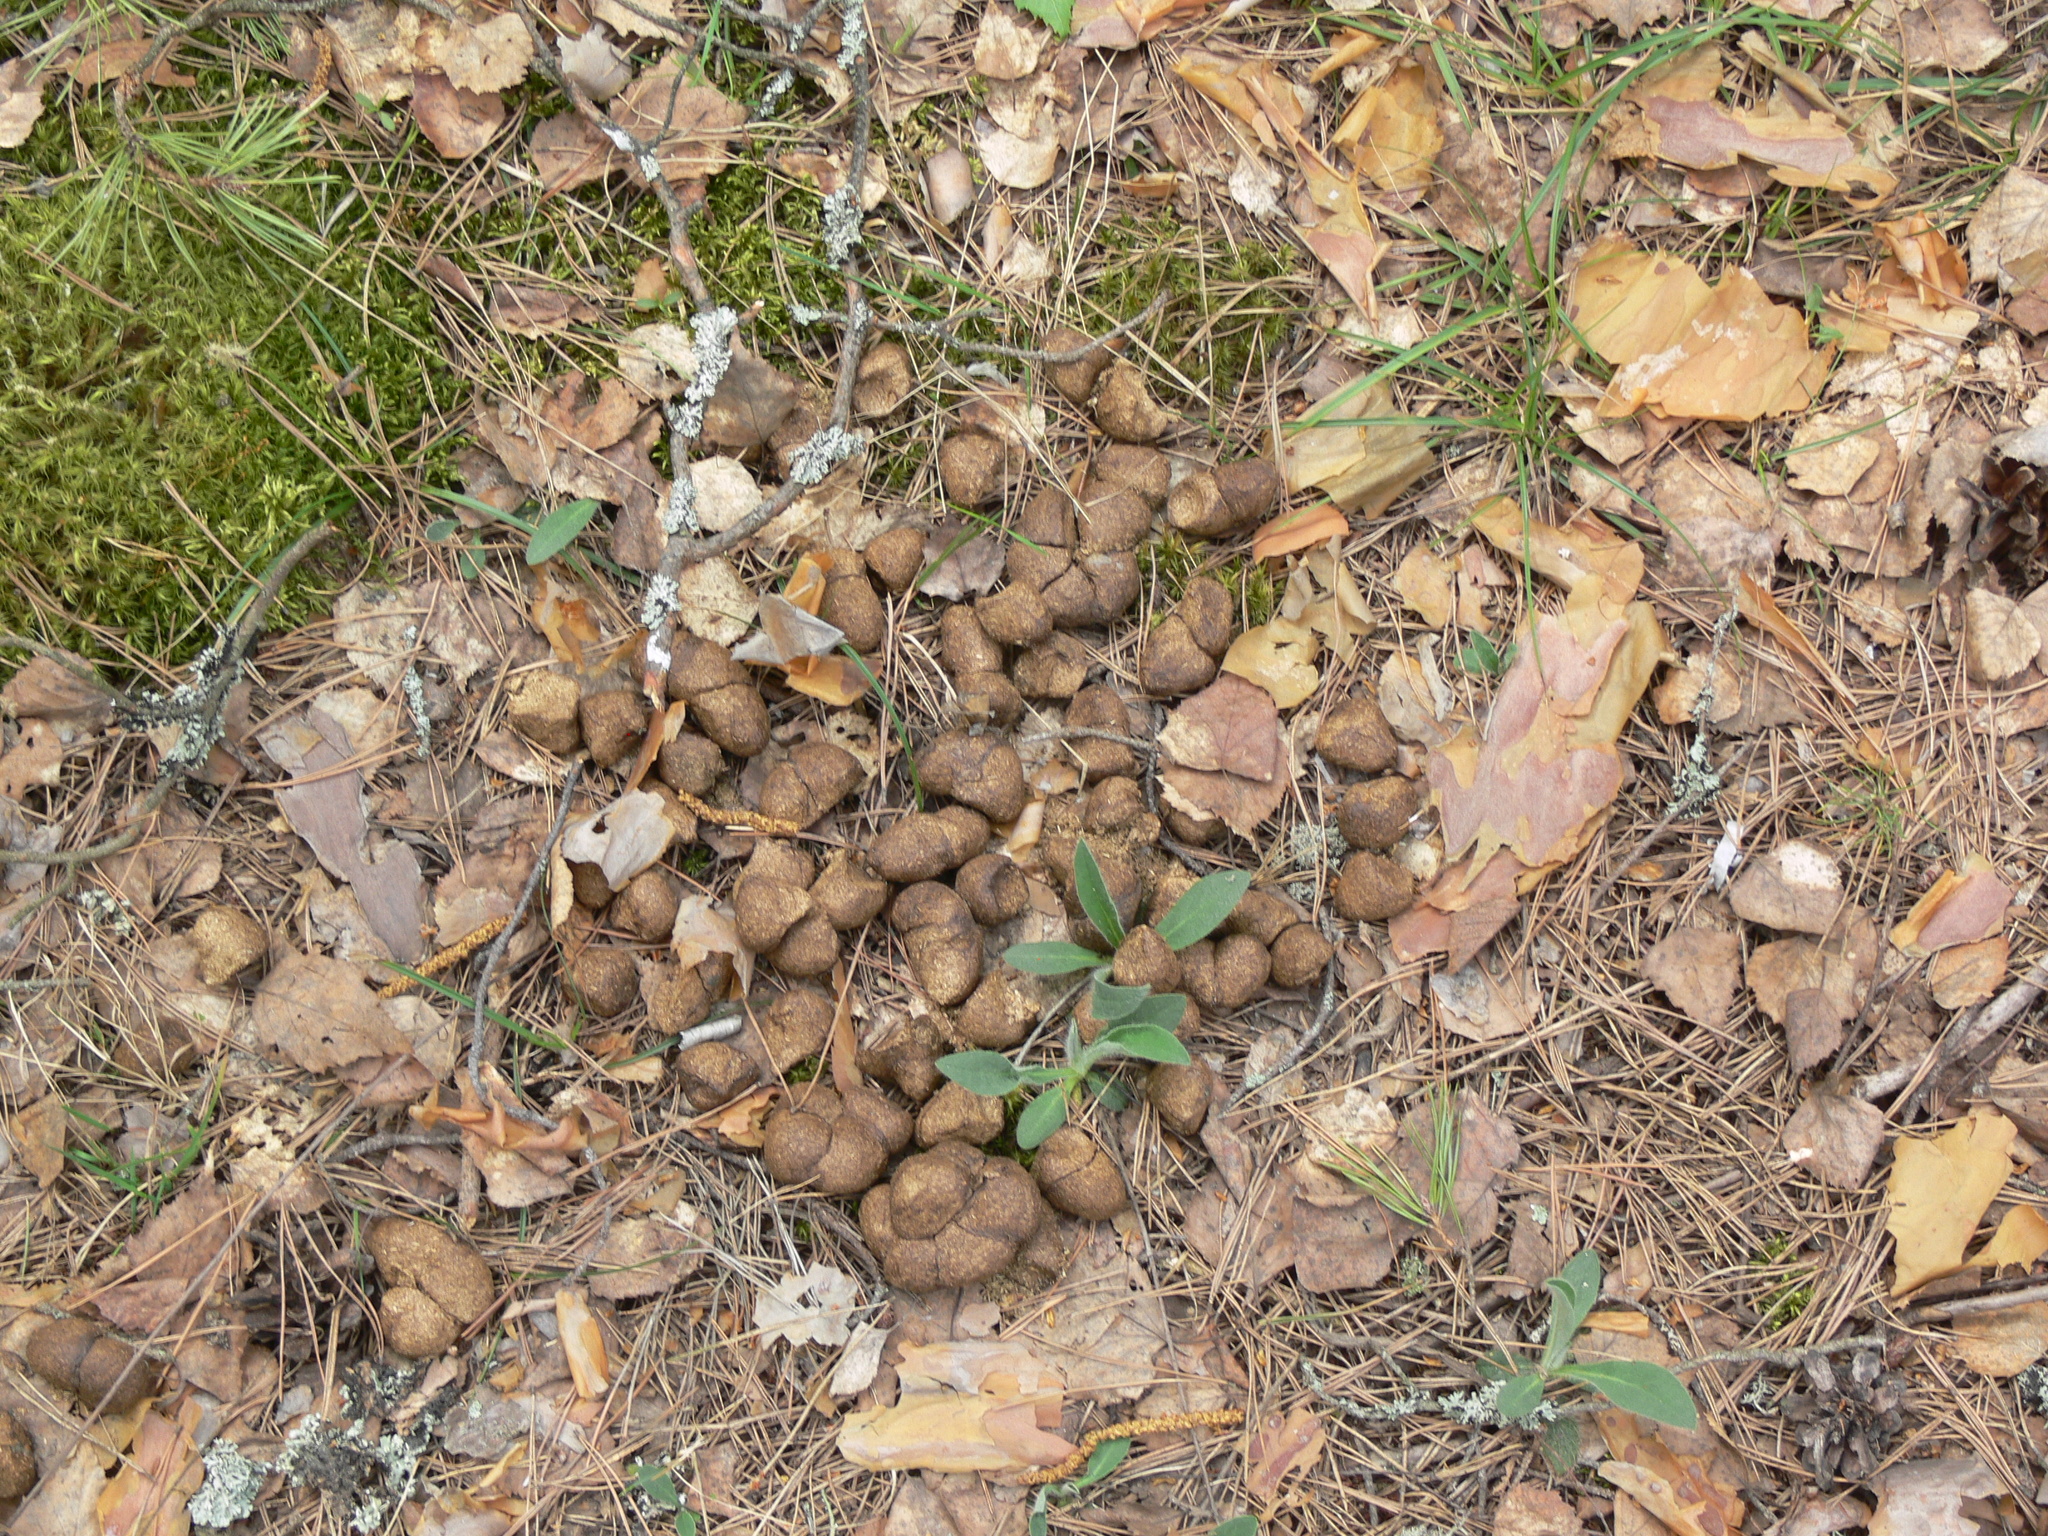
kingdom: Animalia
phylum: Chordata
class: Mammalia
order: Artiodactyla
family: Cervidae
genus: Alces
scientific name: Alces alces
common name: Moose
